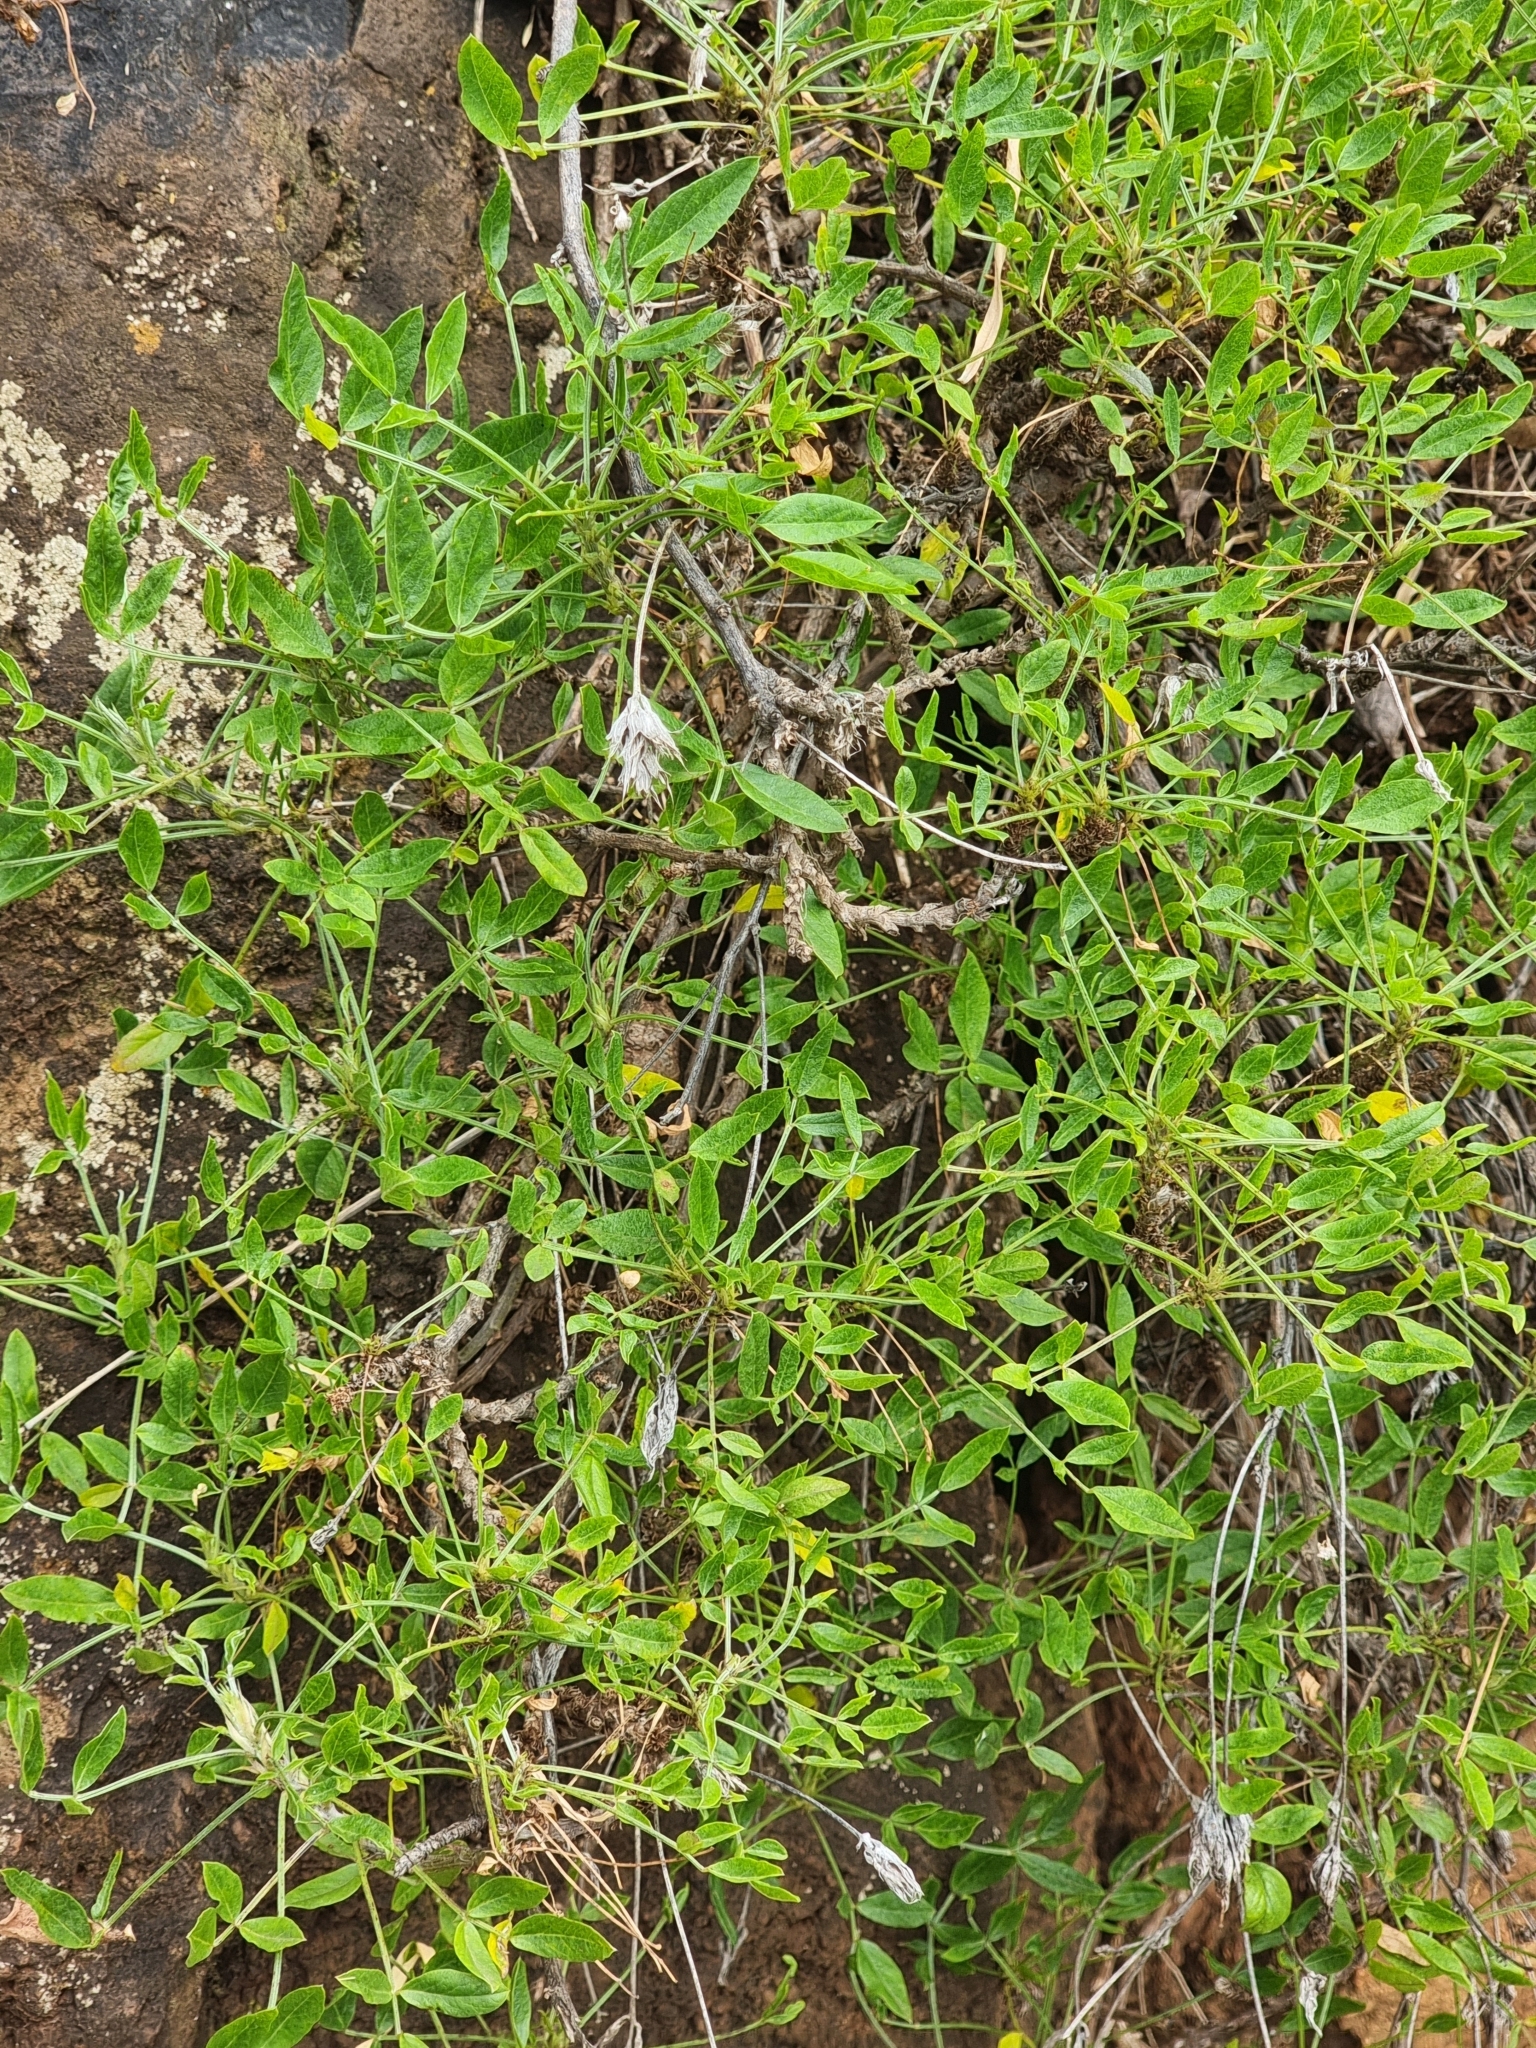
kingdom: Plantae
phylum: Tracheophyta
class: Magnoliopsida
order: Fabales
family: Fabaceae
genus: Bituminaria
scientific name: Bituminaria bituminosa
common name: Arabian pea
